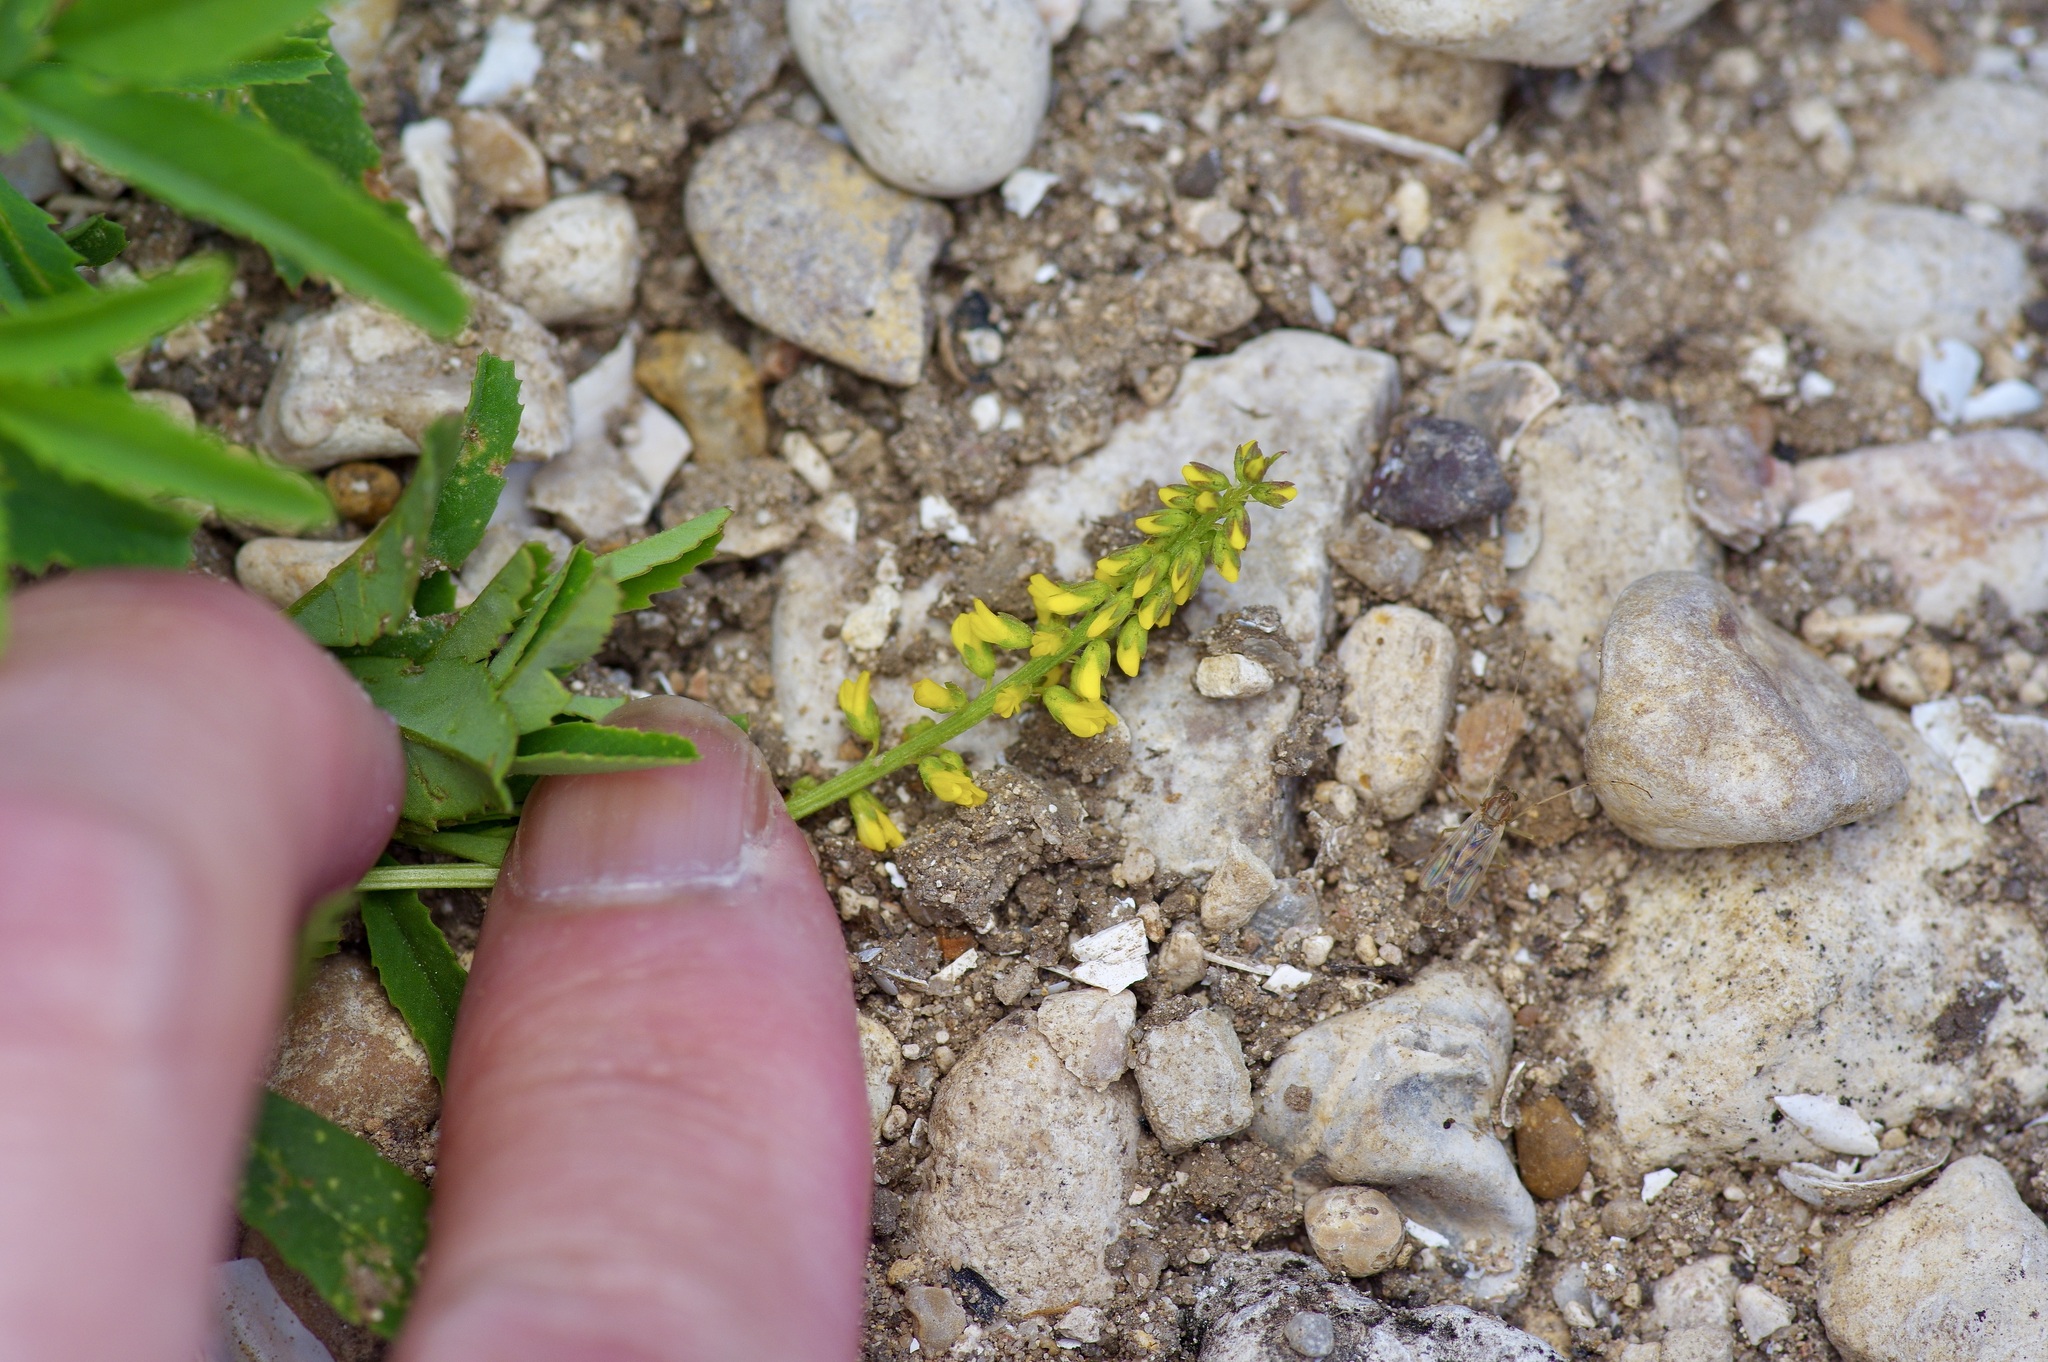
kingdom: Plantae
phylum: Tracheophyta
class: Magnoliopsida
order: Fabales
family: Fabaceae
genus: Melilotus
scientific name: Melilotus indicus
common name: Small melilot
